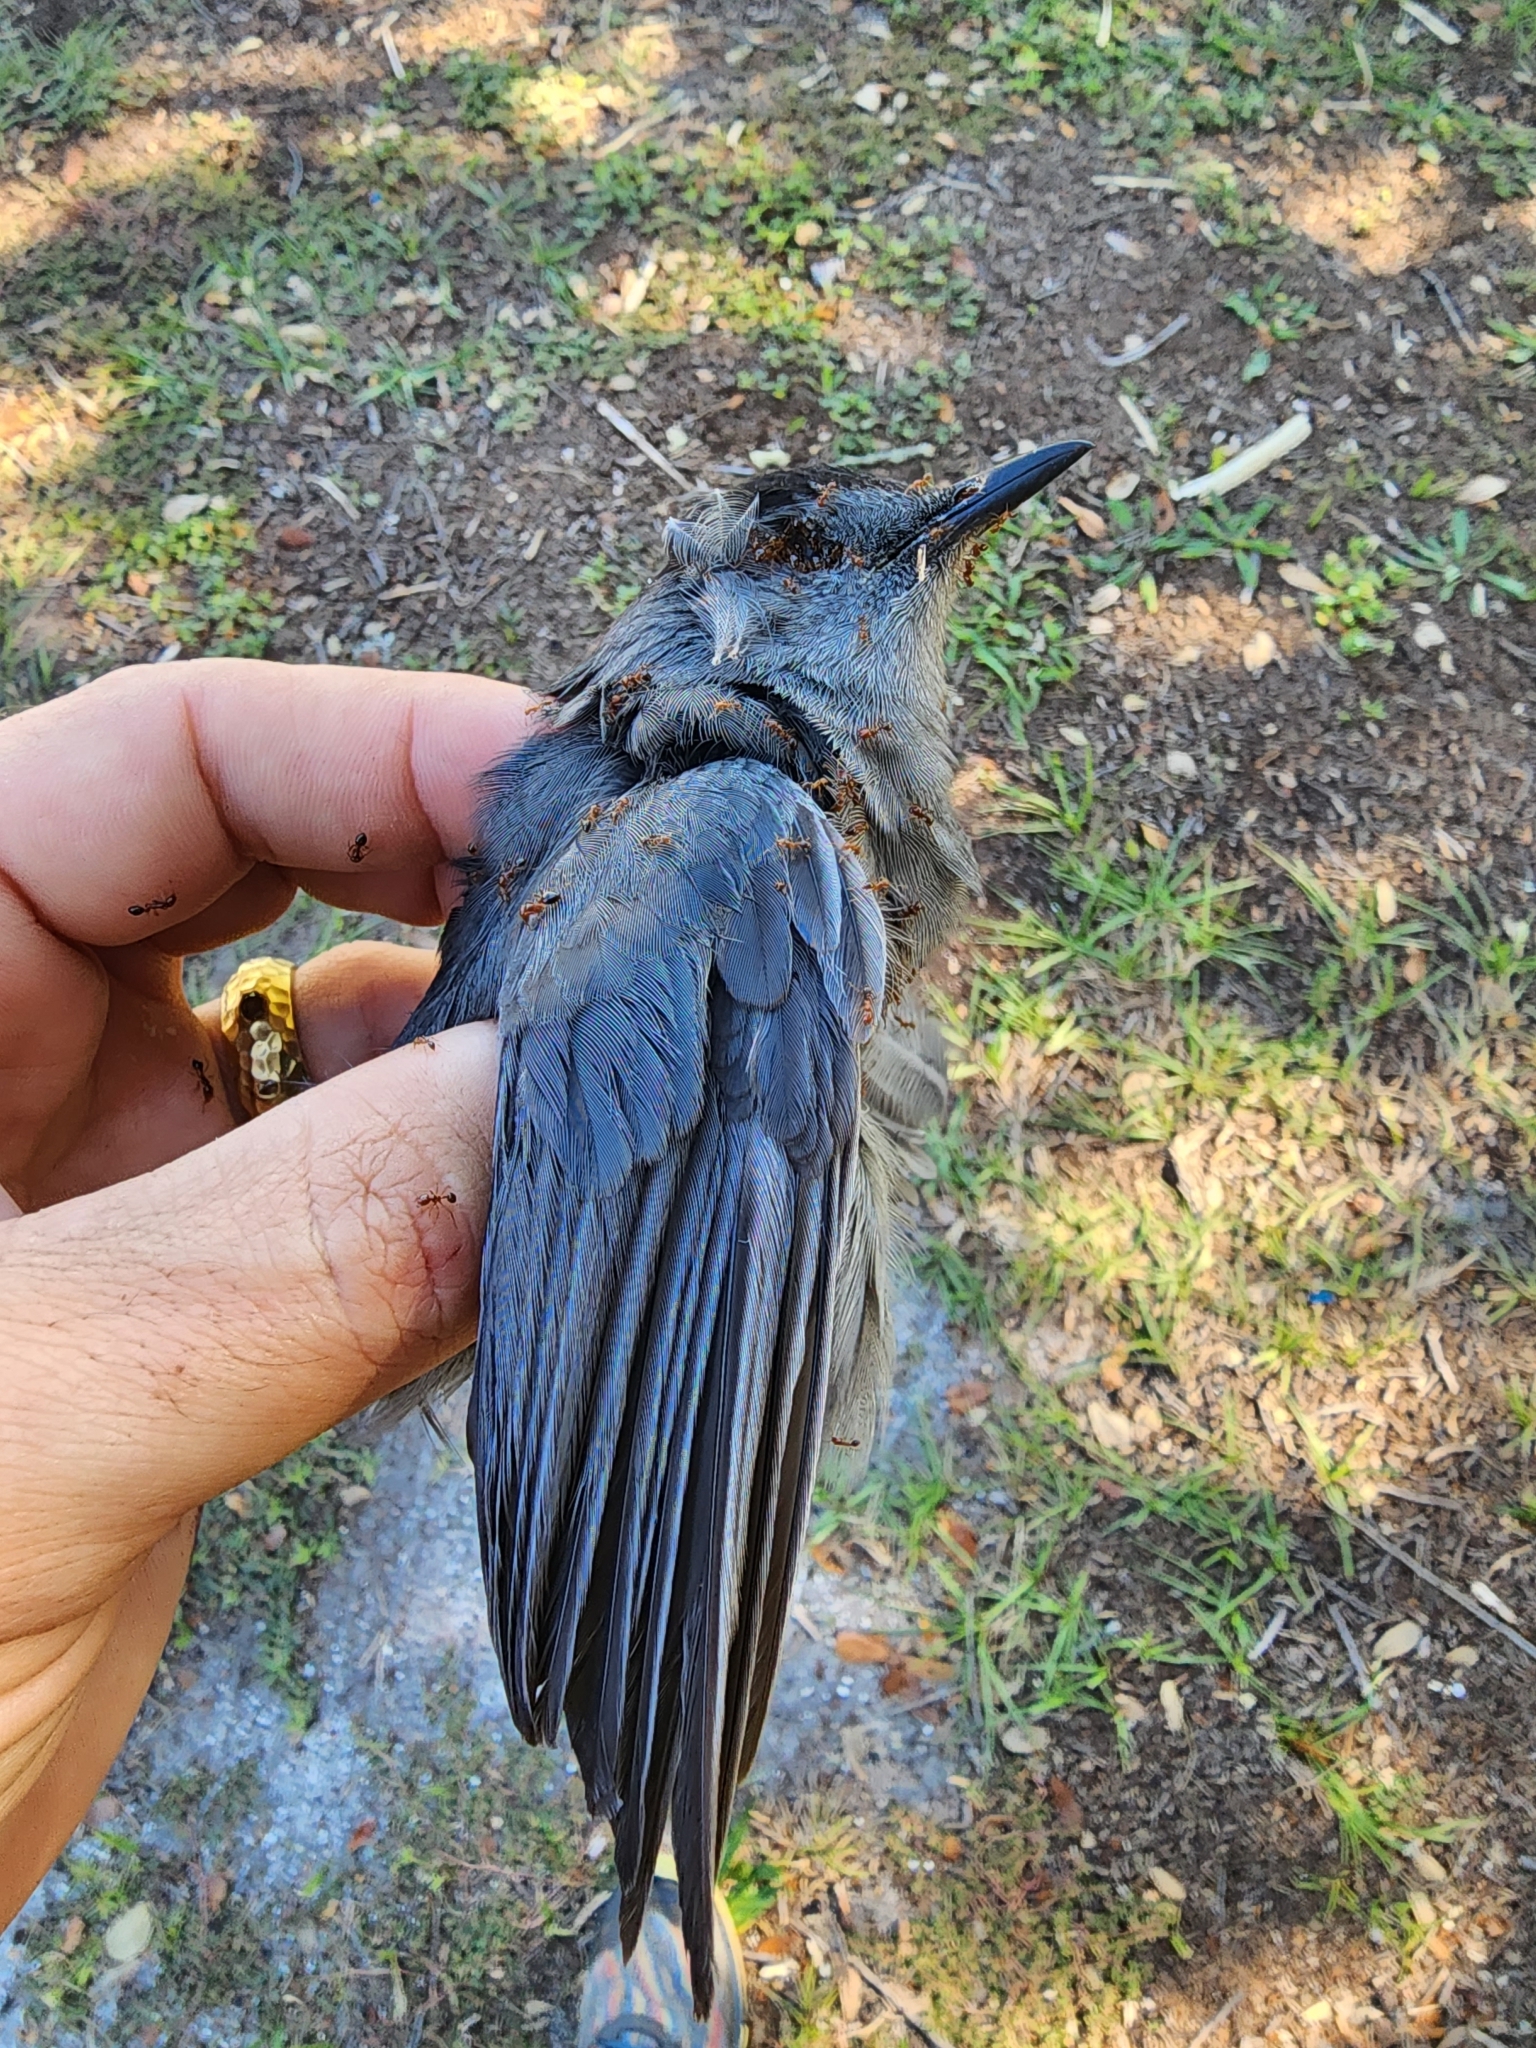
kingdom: Animalia
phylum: Chordata
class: Aves
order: Passeriformes
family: Mimidae
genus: Dumetella
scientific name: Dumetella carolinensis
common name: Gray catbird
